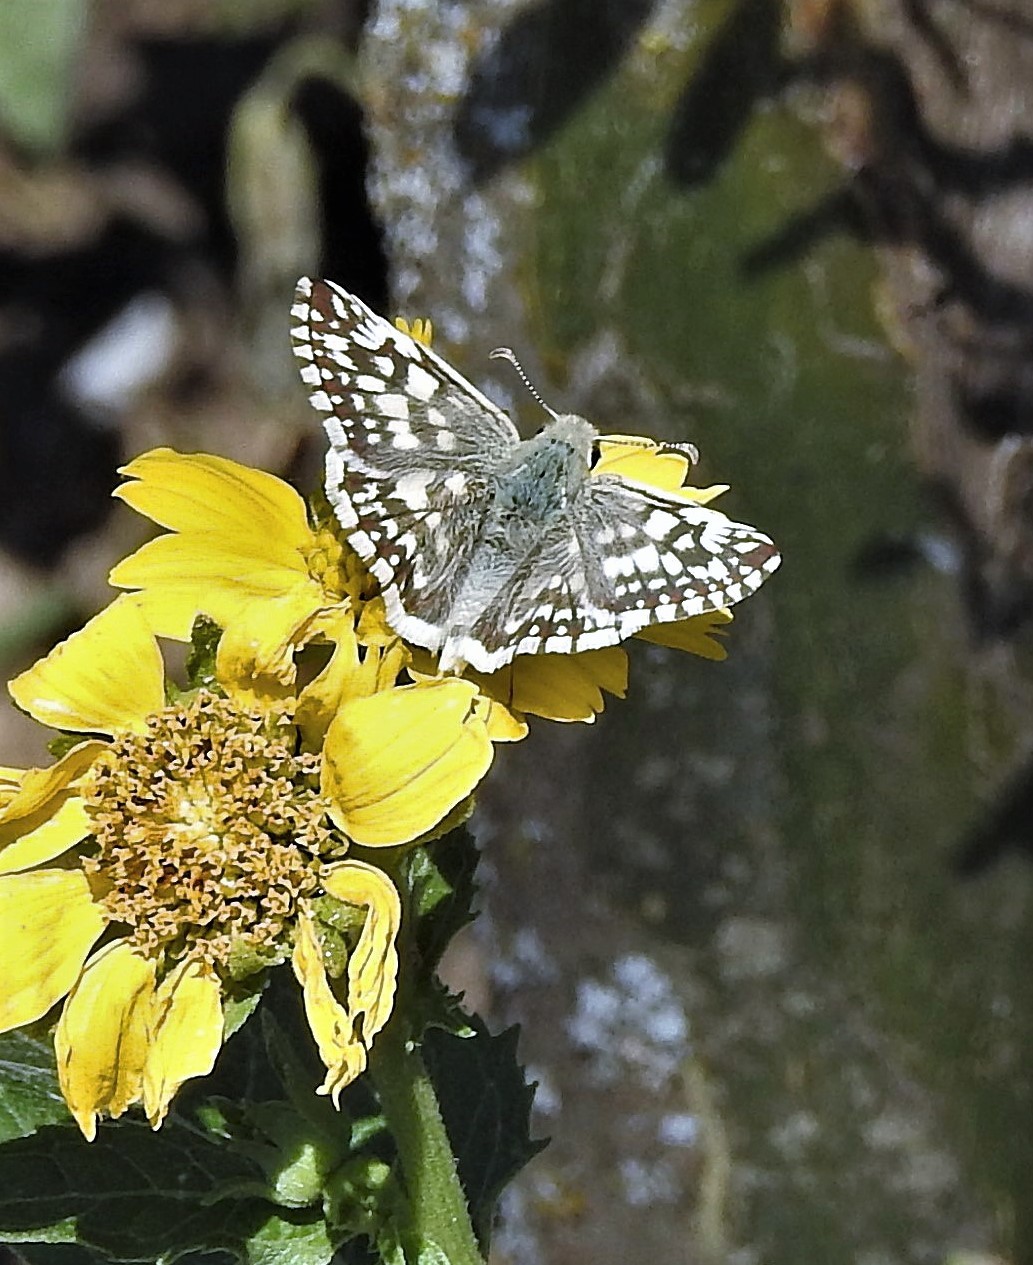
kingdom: Animalia
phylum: Arthropoda
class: Insecta
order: Lepidoptera
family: Hesperiidae
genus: Heliopetes
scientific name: Heliopetes americanus
